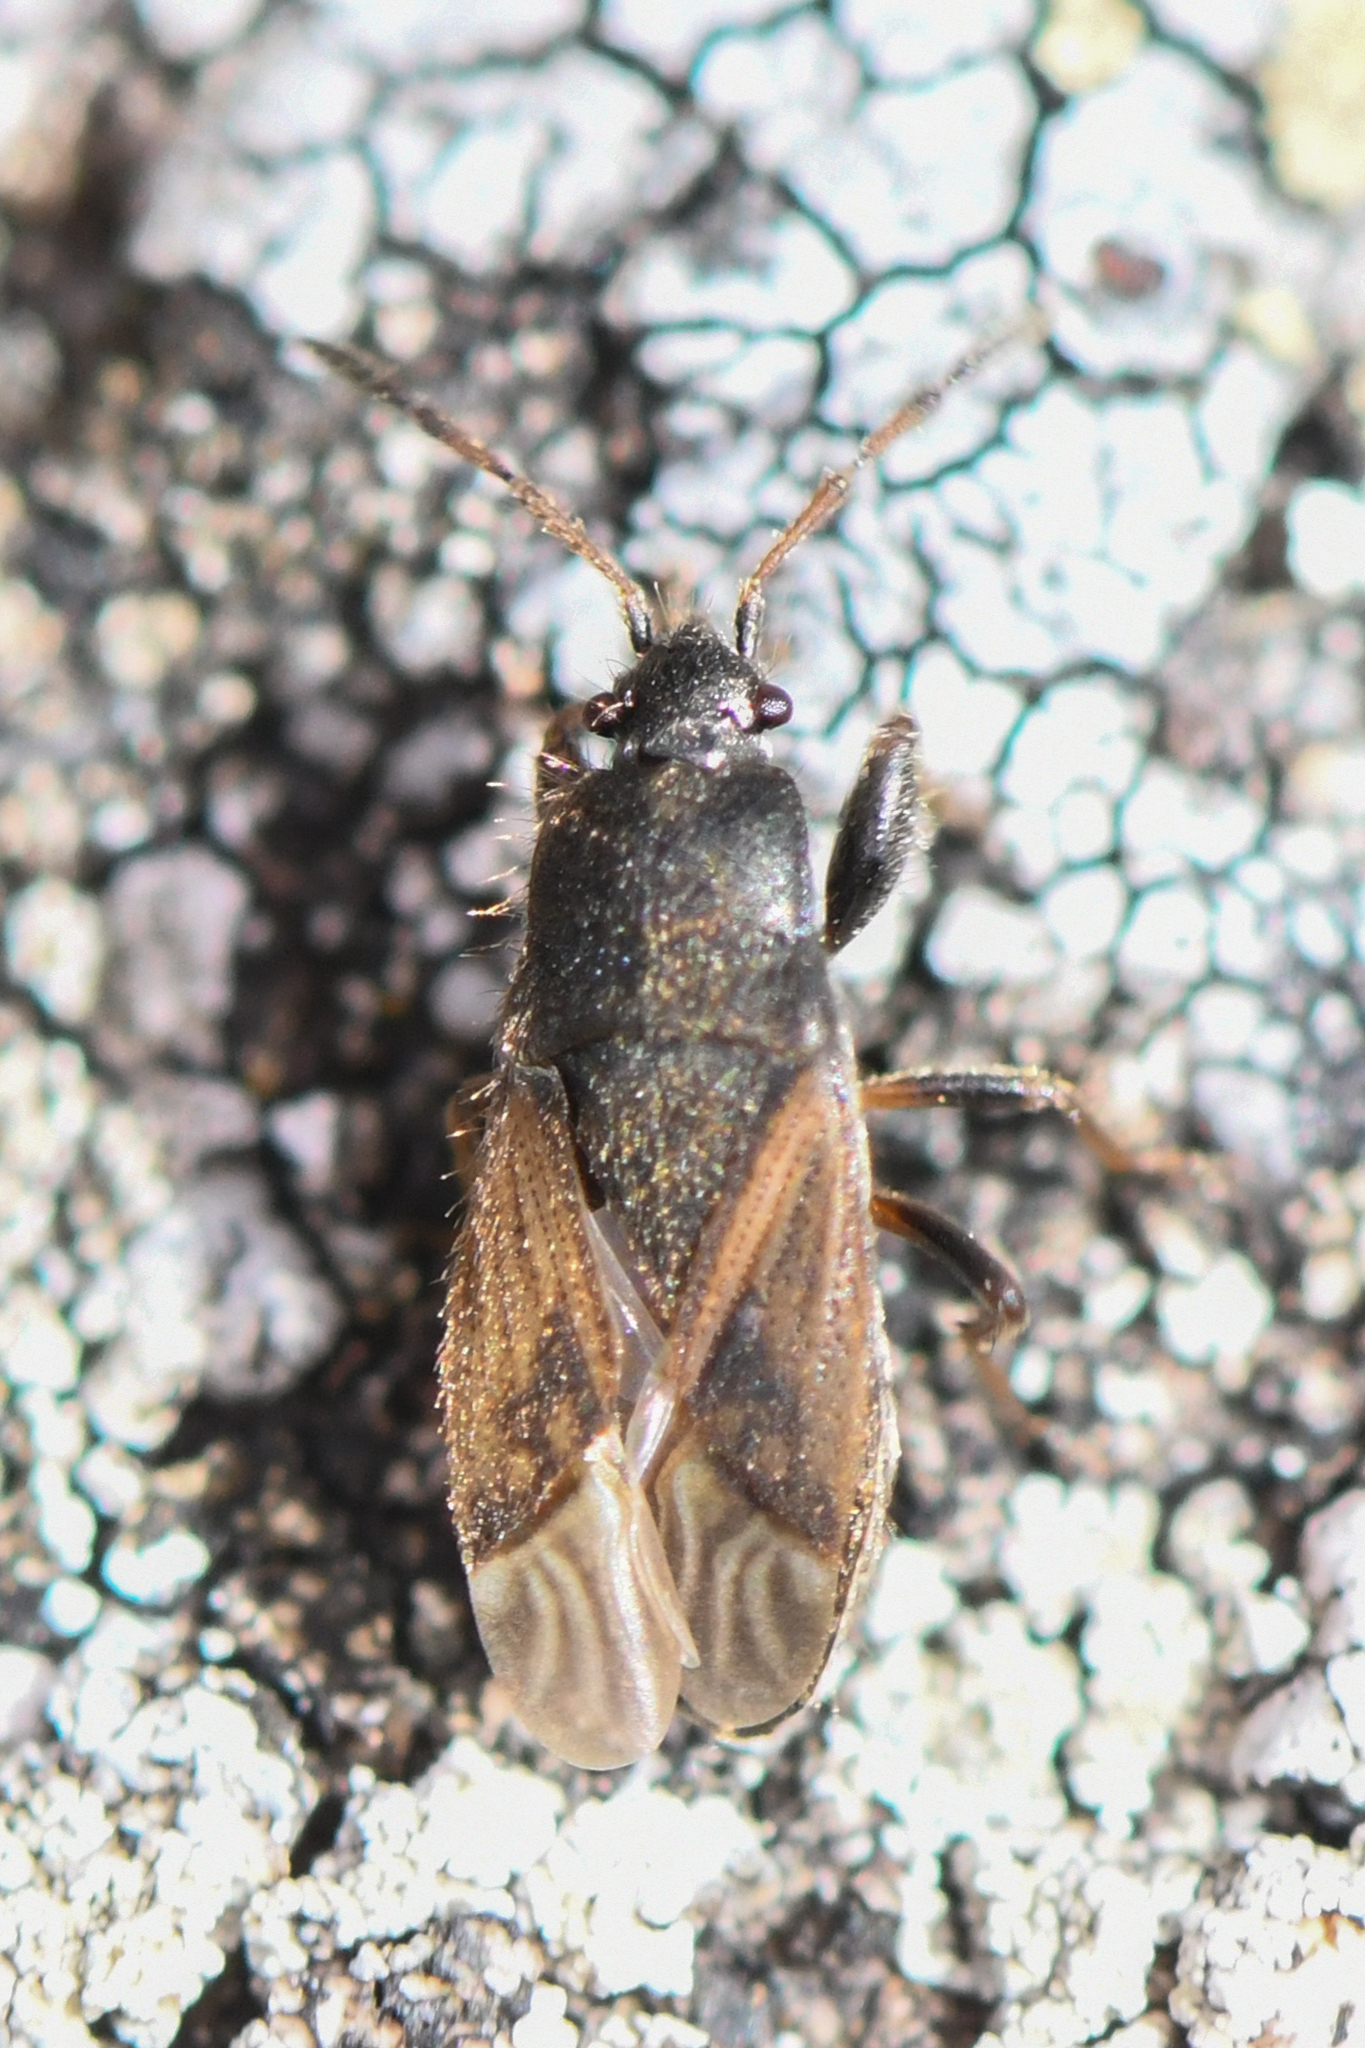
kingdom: Animalia
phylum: Arthropoda
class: Insecta
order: Hemiptera
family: Rhyparochromidae
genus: Megalonotus
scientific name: Megalonotus sabulicola
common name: Seed bug
